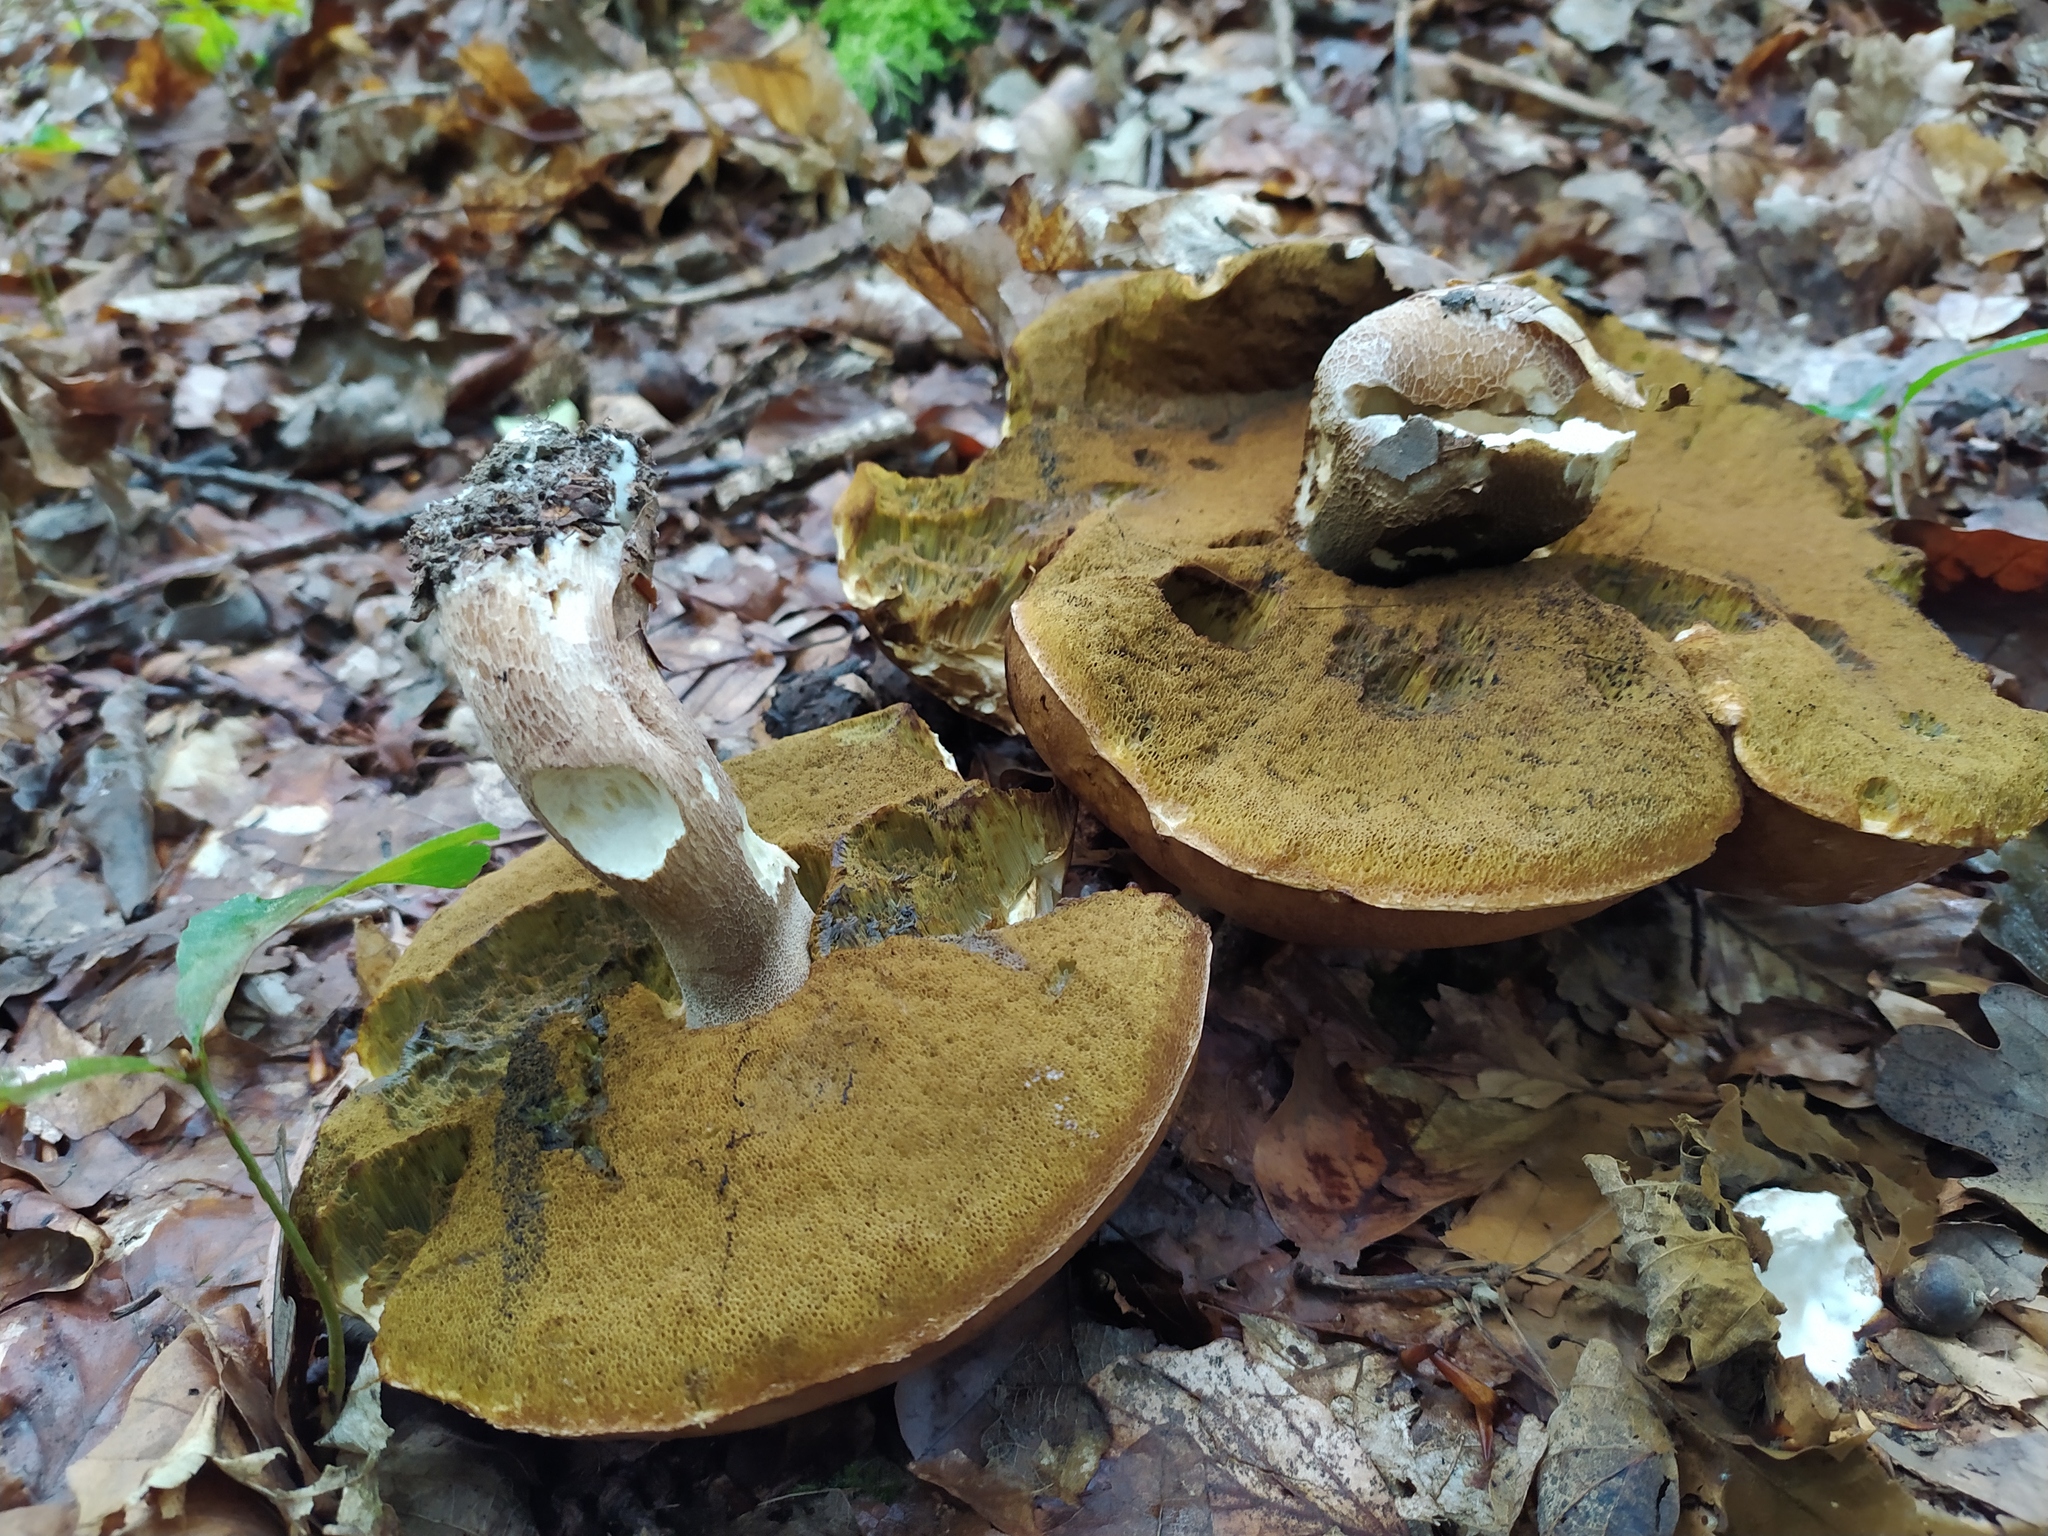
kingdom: Fungi
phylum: Basidiomycota
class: Agaricomycetes
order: Boletales
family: Boletaceae
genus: Boletus
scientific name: Boletus reticulatus
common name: Summer bolete
